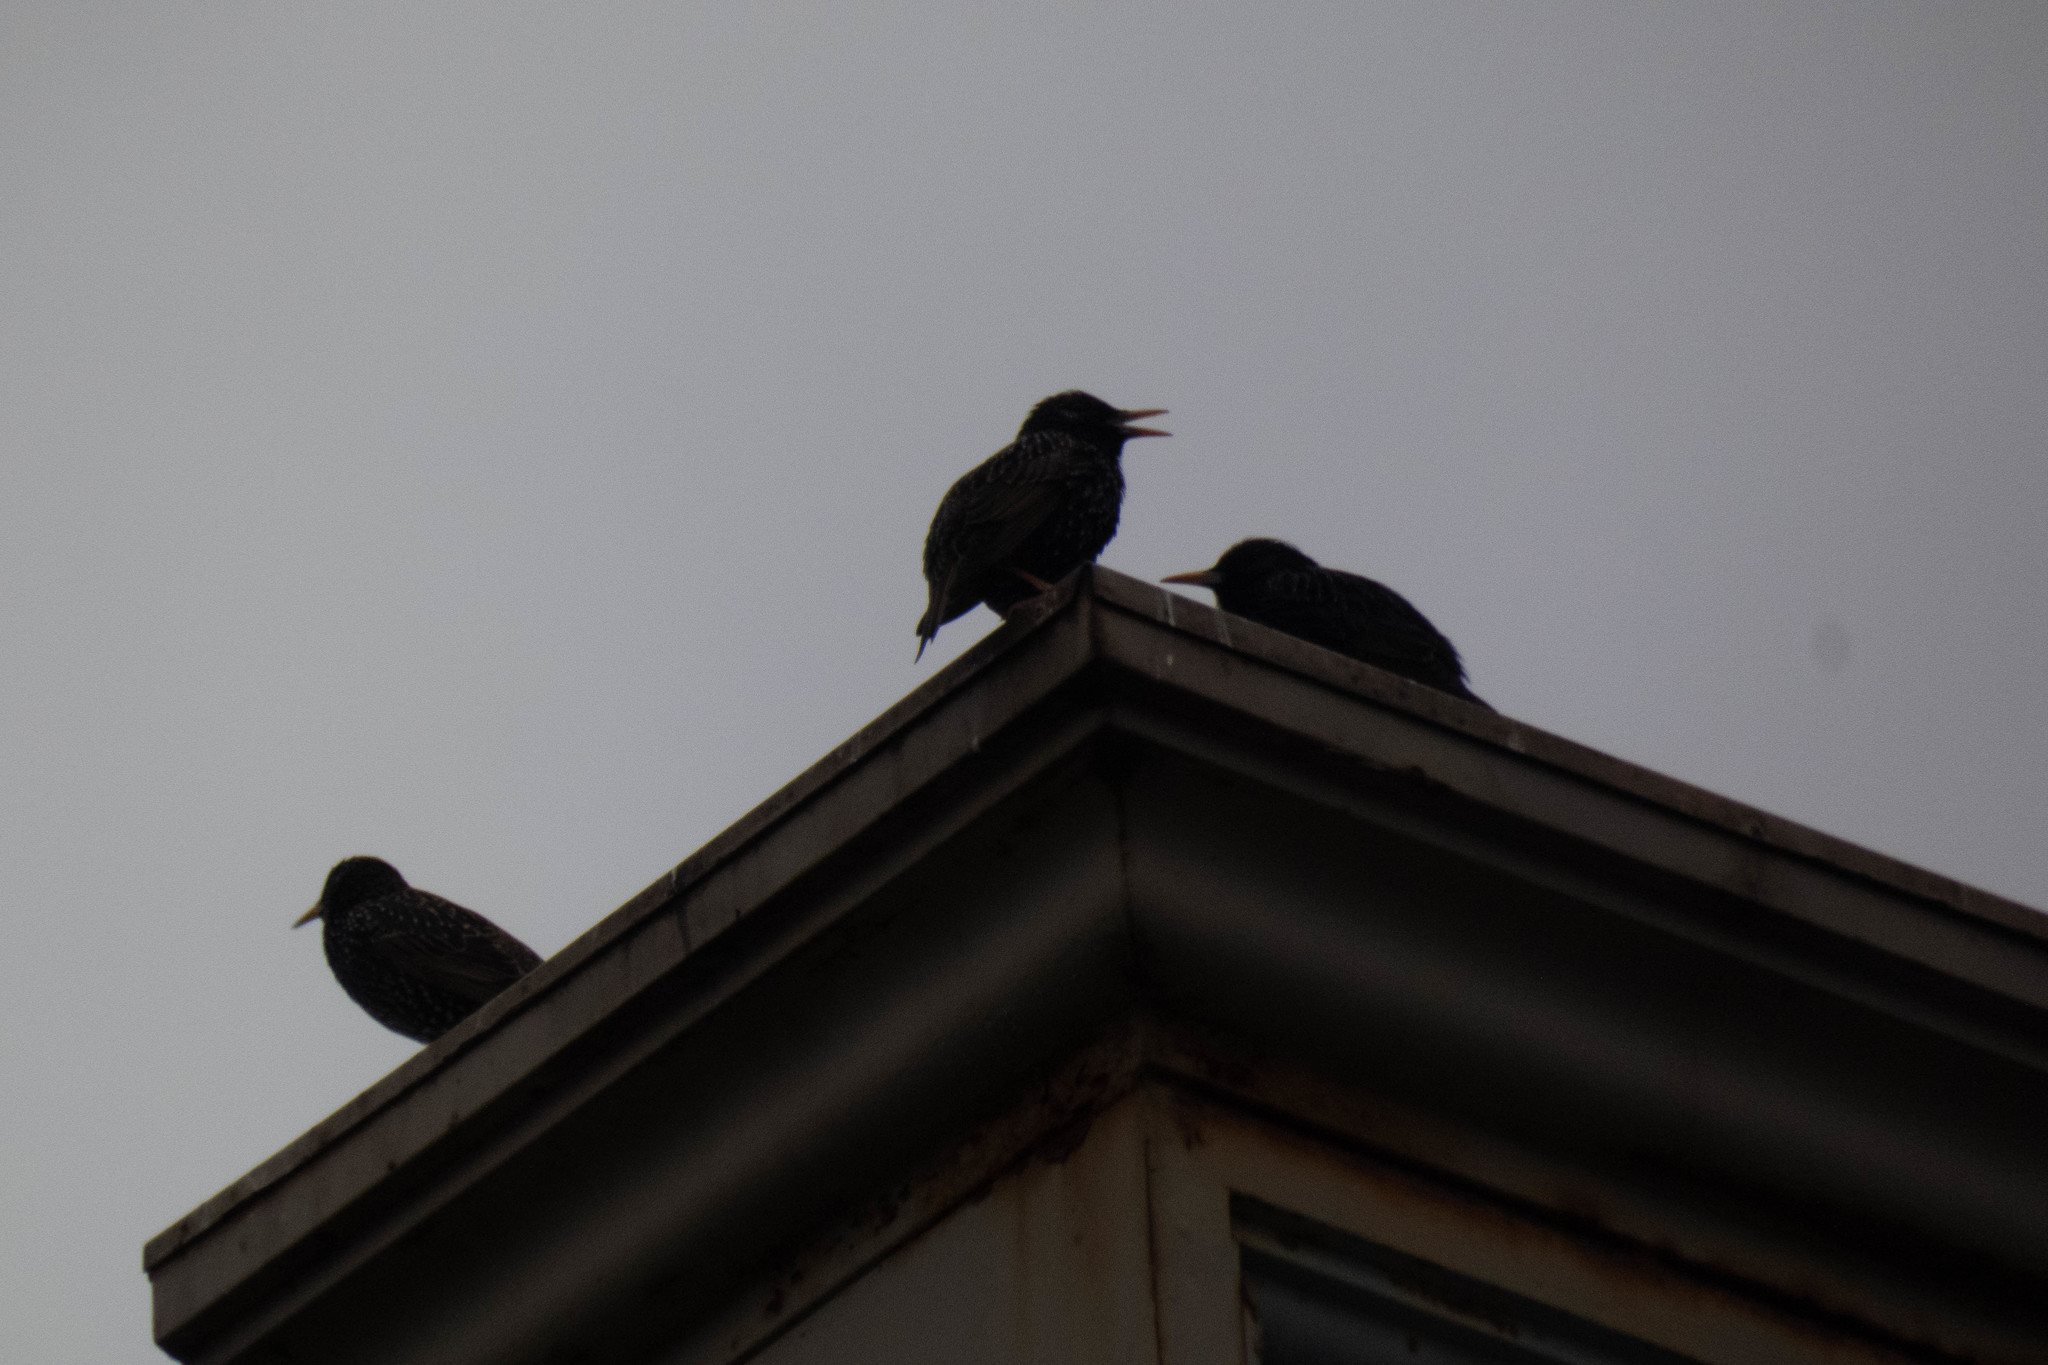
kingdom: Animalia
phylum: Chordata
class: Aves
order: Passeriformes
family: Sturnidae
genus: Sturnus
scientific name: Sturnus vulgaris
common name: Common starling
